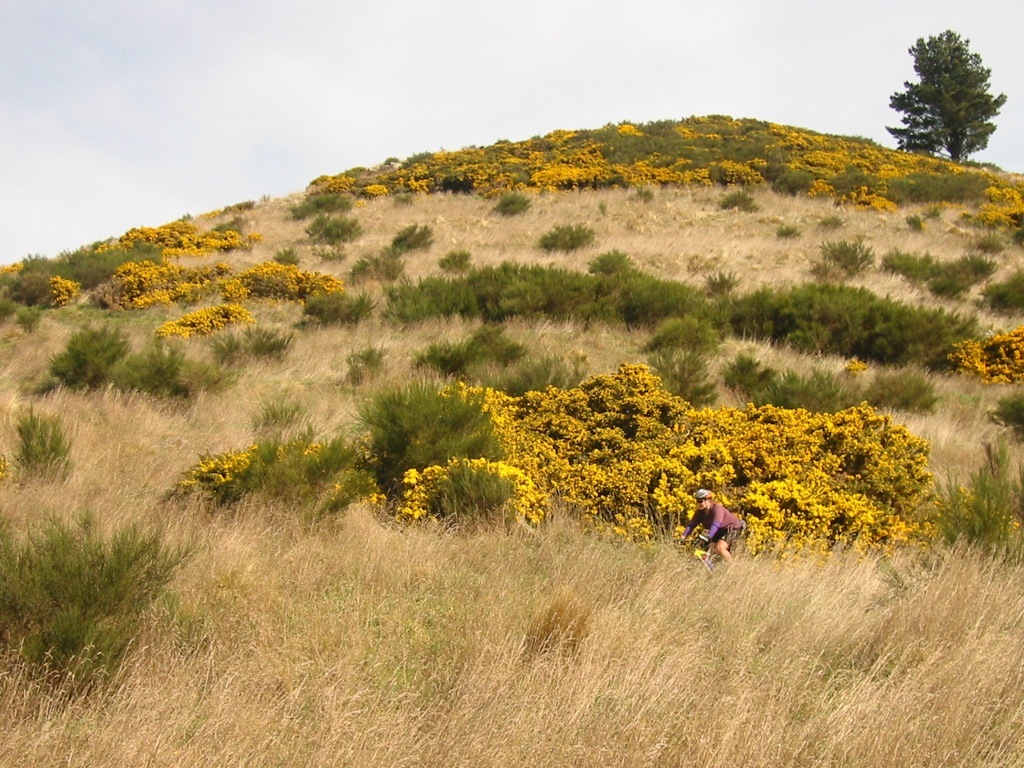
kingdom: Plantae
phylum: Tracheophyta
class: Magnoliopsida
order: Fabales
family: Fabaceae
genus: Cytisus
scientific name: Cytisus scoparius
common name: Scotch broom
